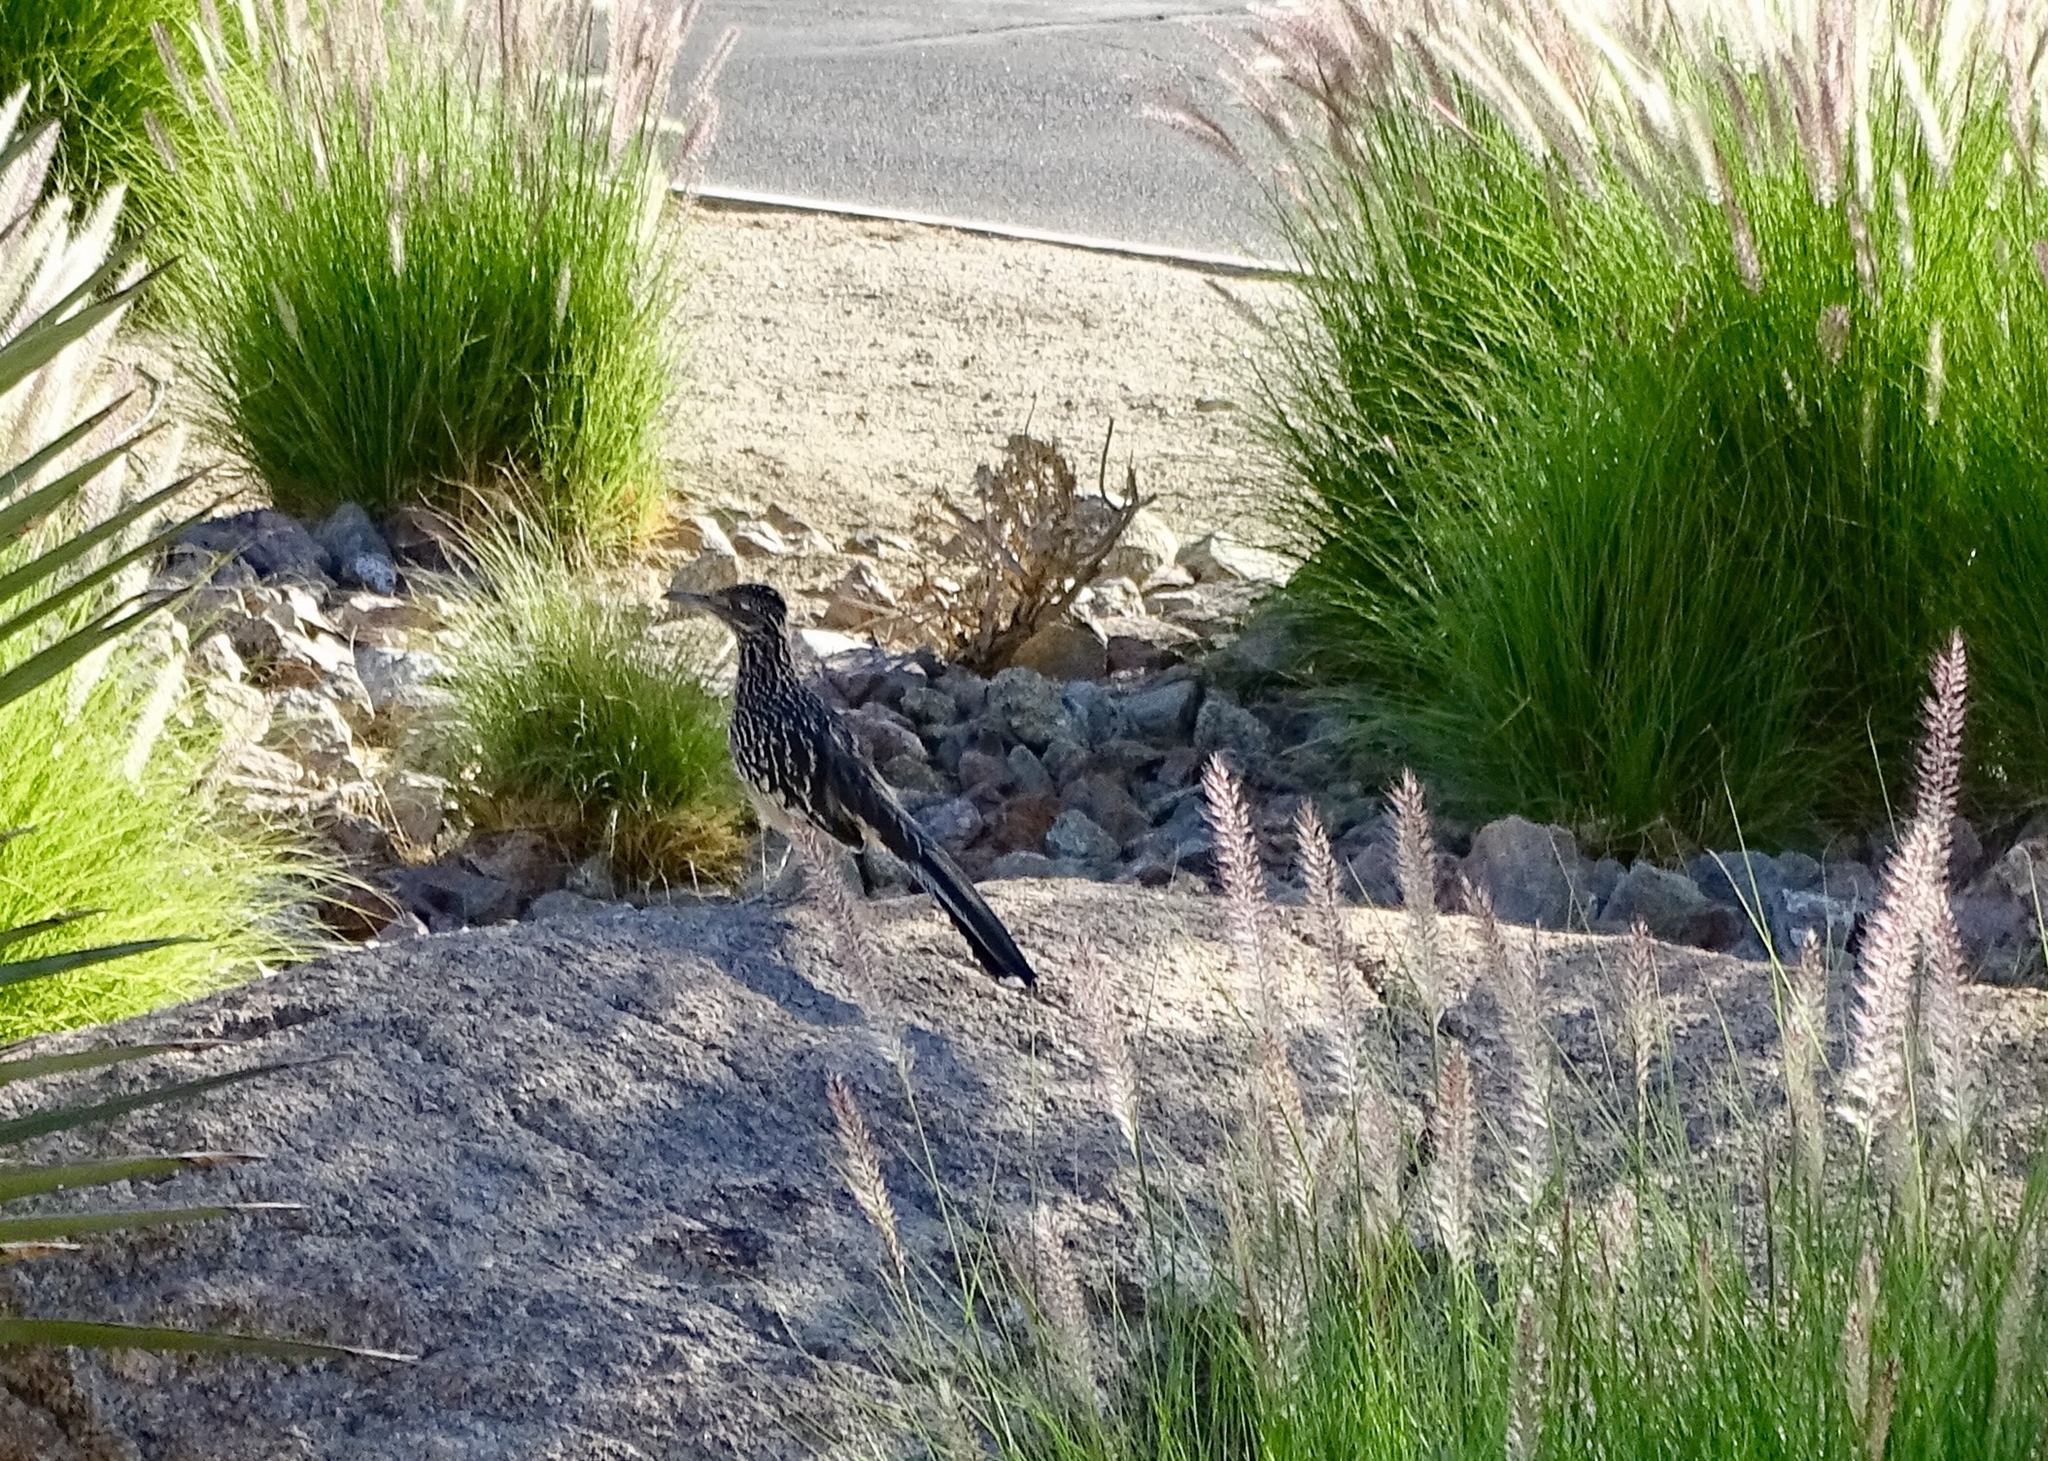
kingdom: Animalia
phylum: Chordata
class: Aves
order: Cuculiformes
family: Cuculidae
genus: Geococcyx
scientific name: Geococcyx californianus
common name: Greater roadrunner
